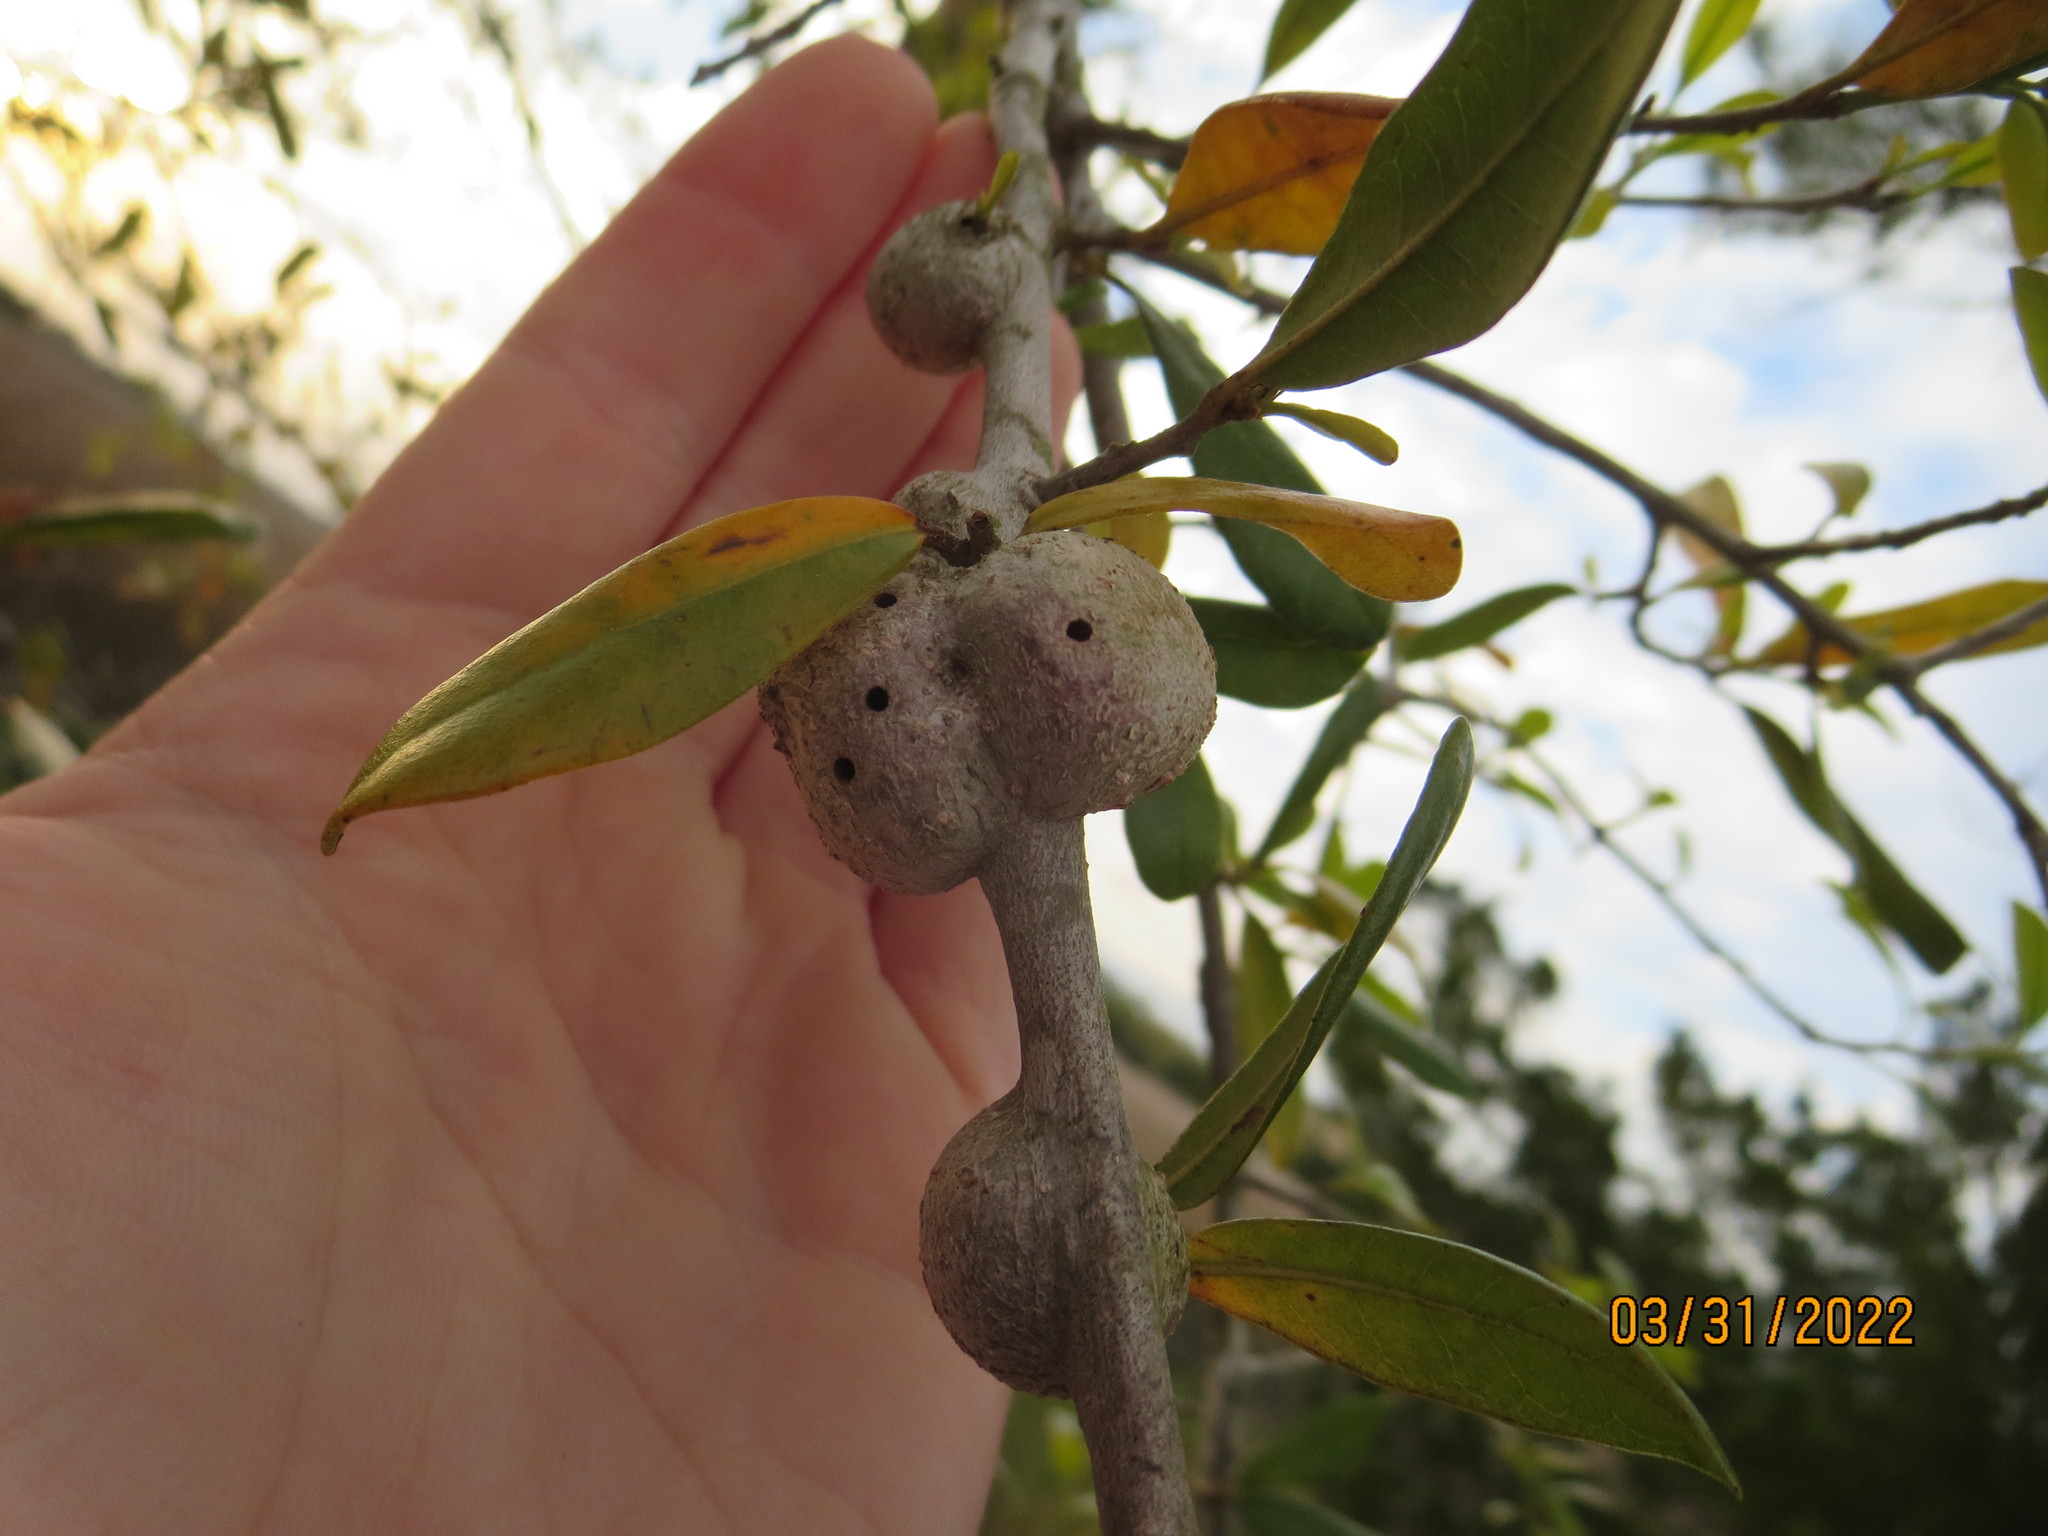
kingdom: Animalia
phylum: Arthropoda
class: Insecta
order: Hymenoptera
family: Cynipidae
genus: Callirhytis
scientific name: Callirhytis
